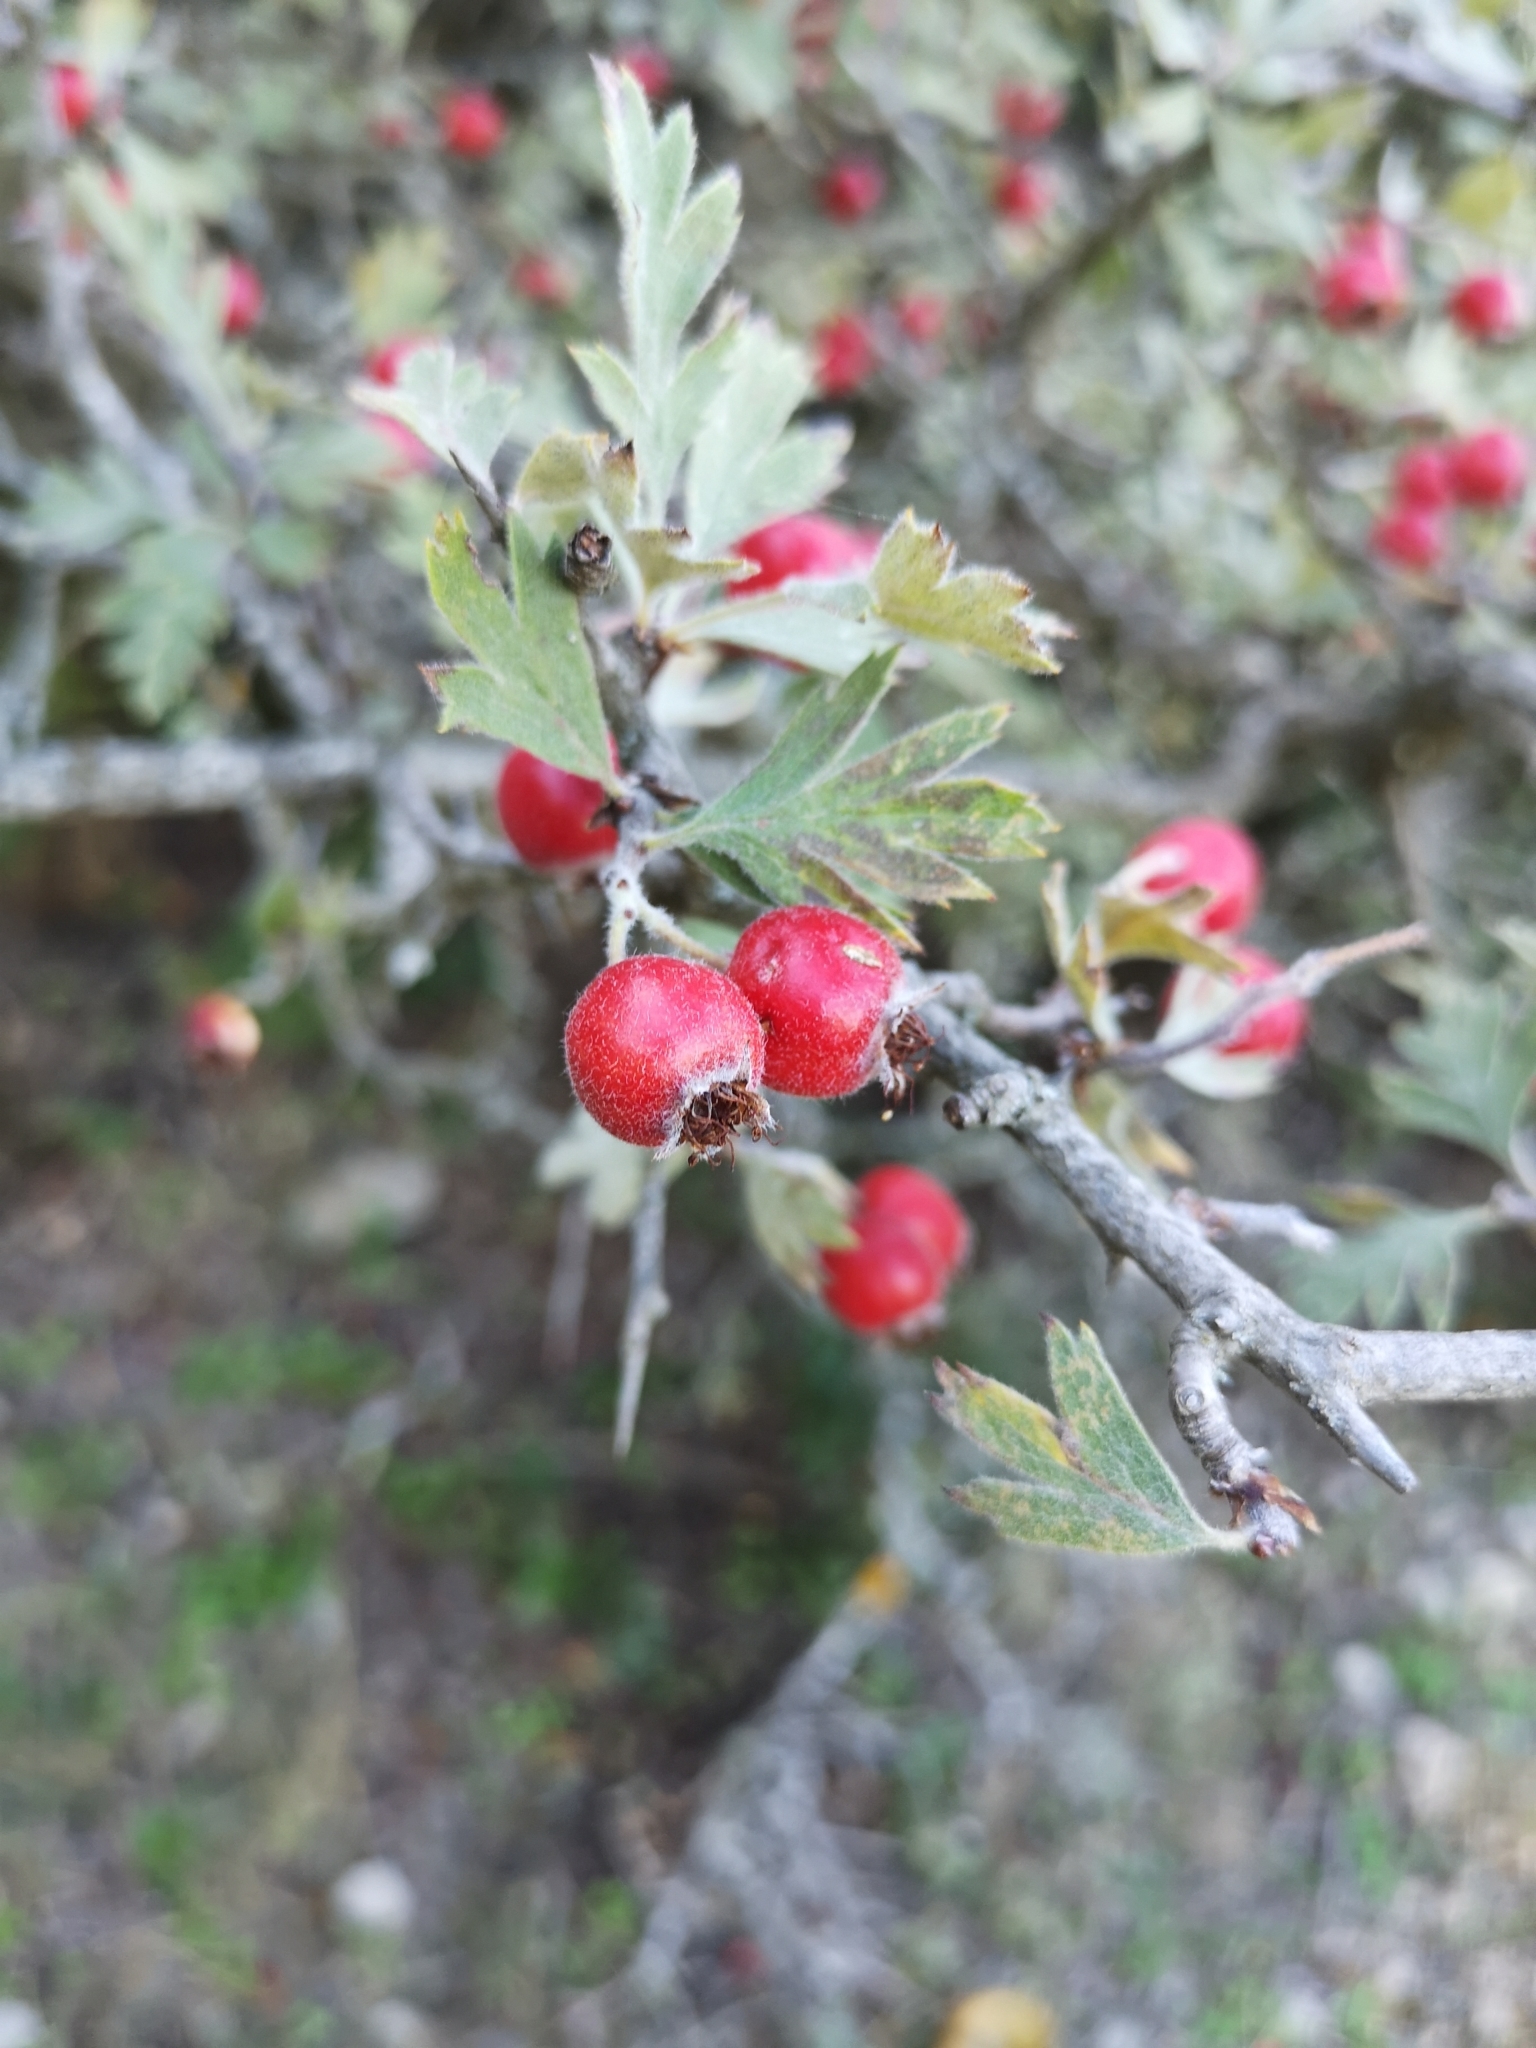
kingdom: Plantae
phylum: Tracheophyta
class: Magnoliopsida
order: Rosales
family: Rosaceae
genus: Crataegus
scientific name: Crataegus monogyna
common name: Hawthorn
